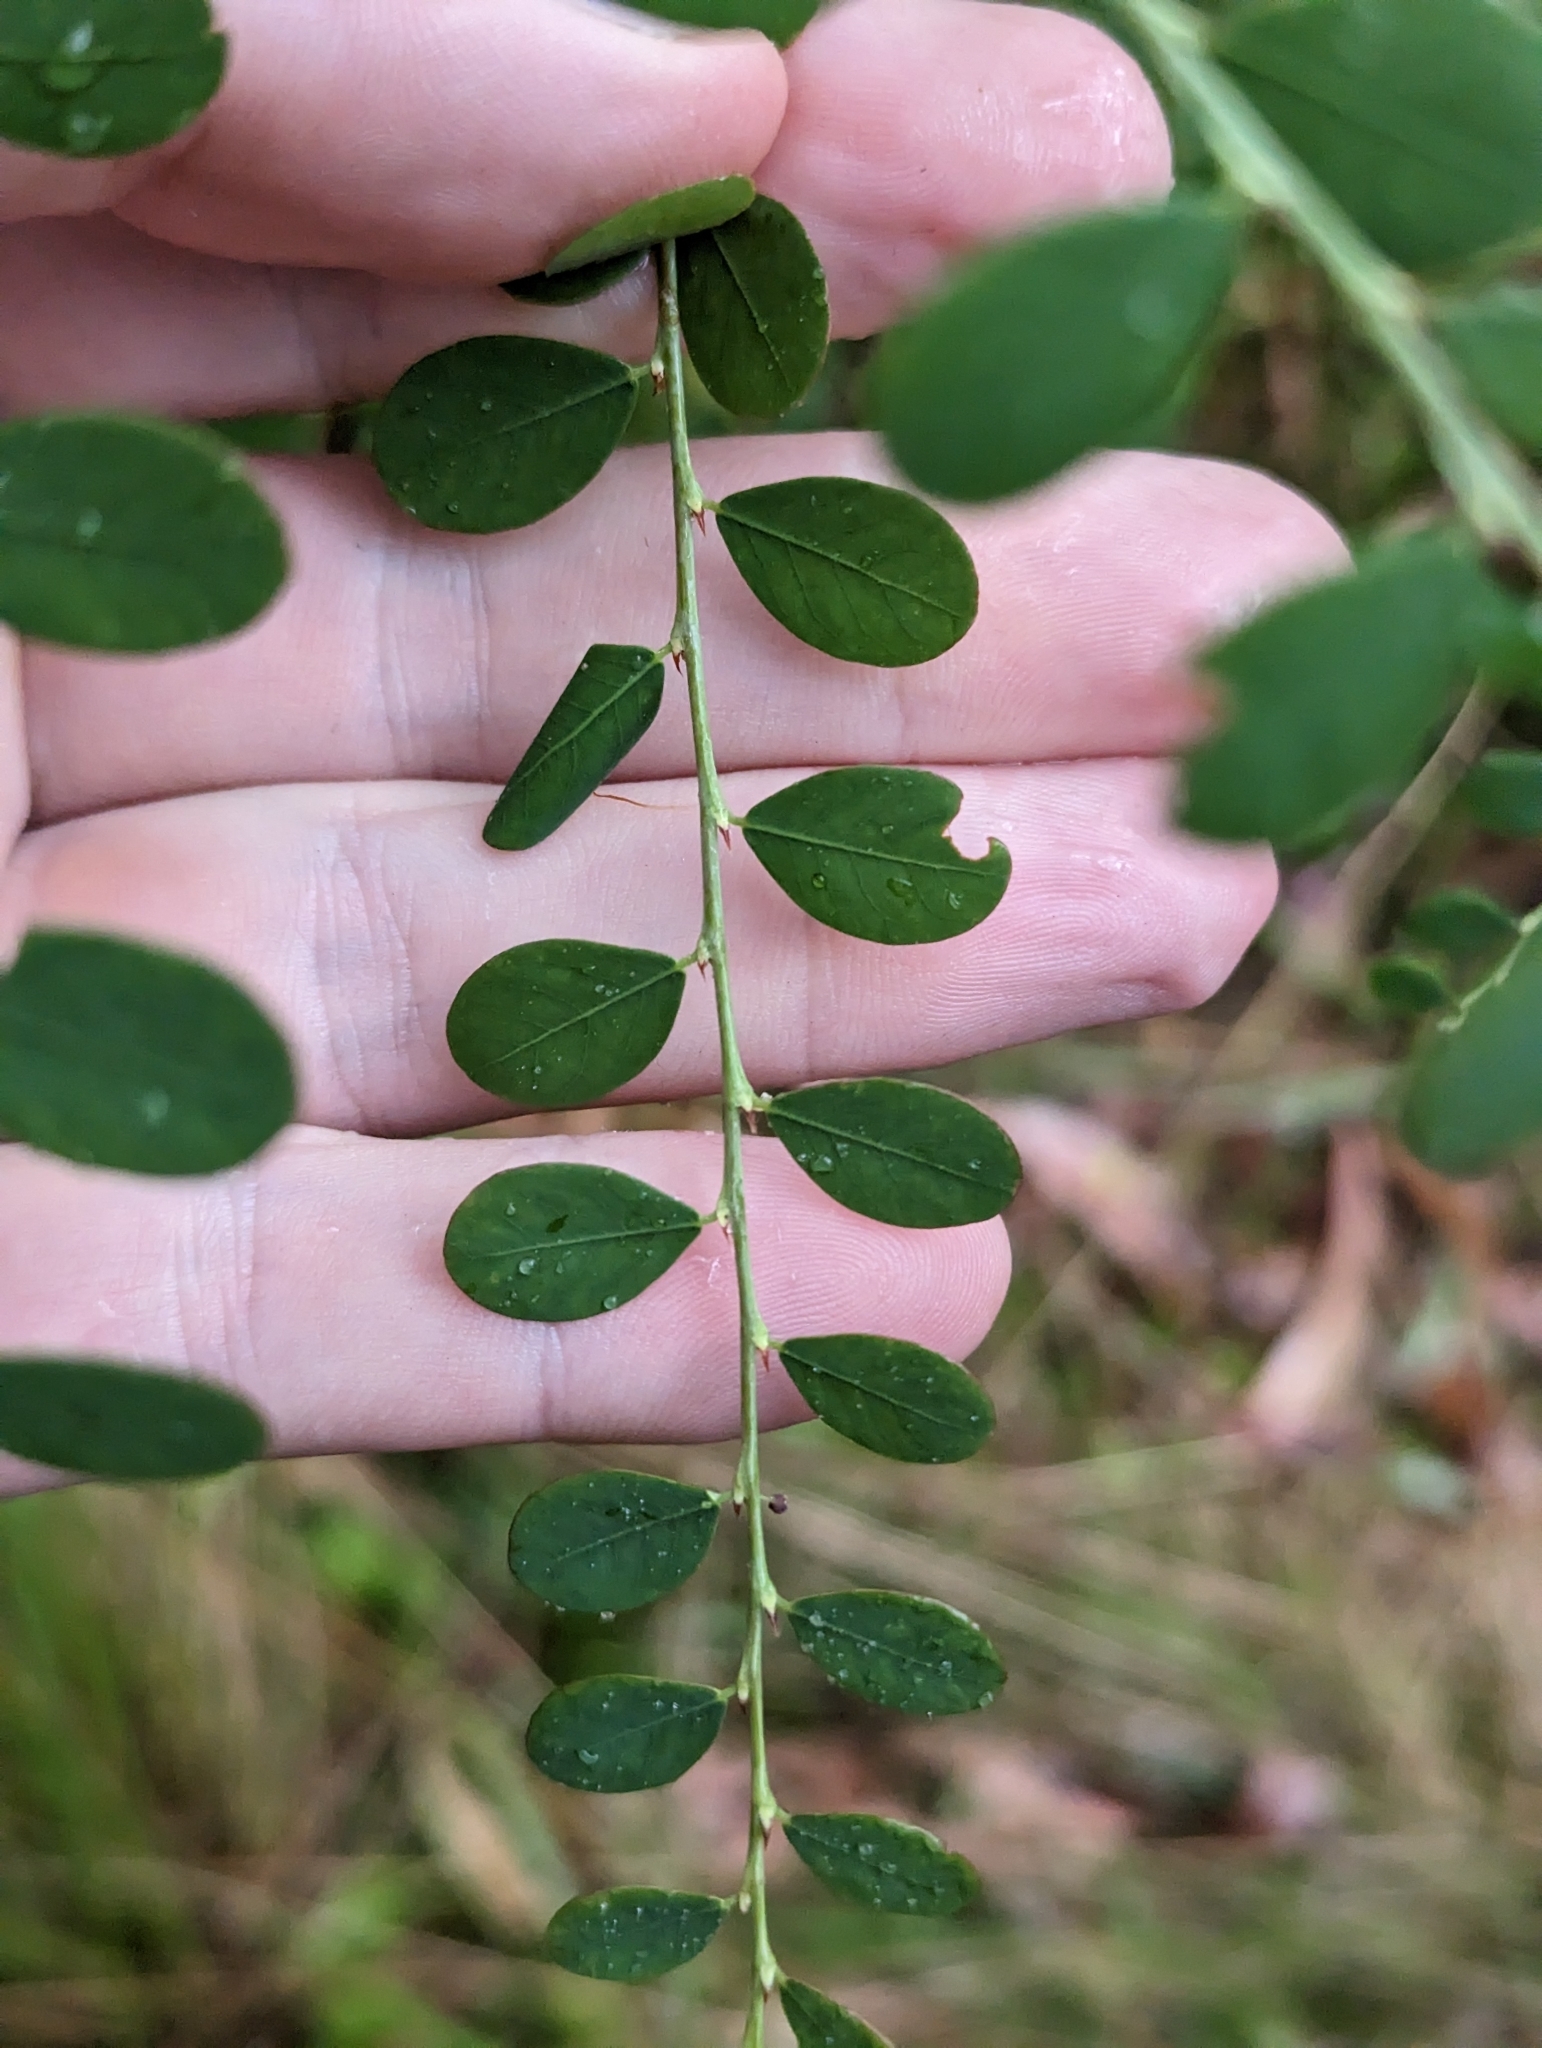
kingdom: Plantae
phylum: Tracheophyta
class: Magnoliopsida
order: Malpighiales
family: Phyllanthaceae
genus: Phyllanthus
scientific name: Phyllanthus gunnii
